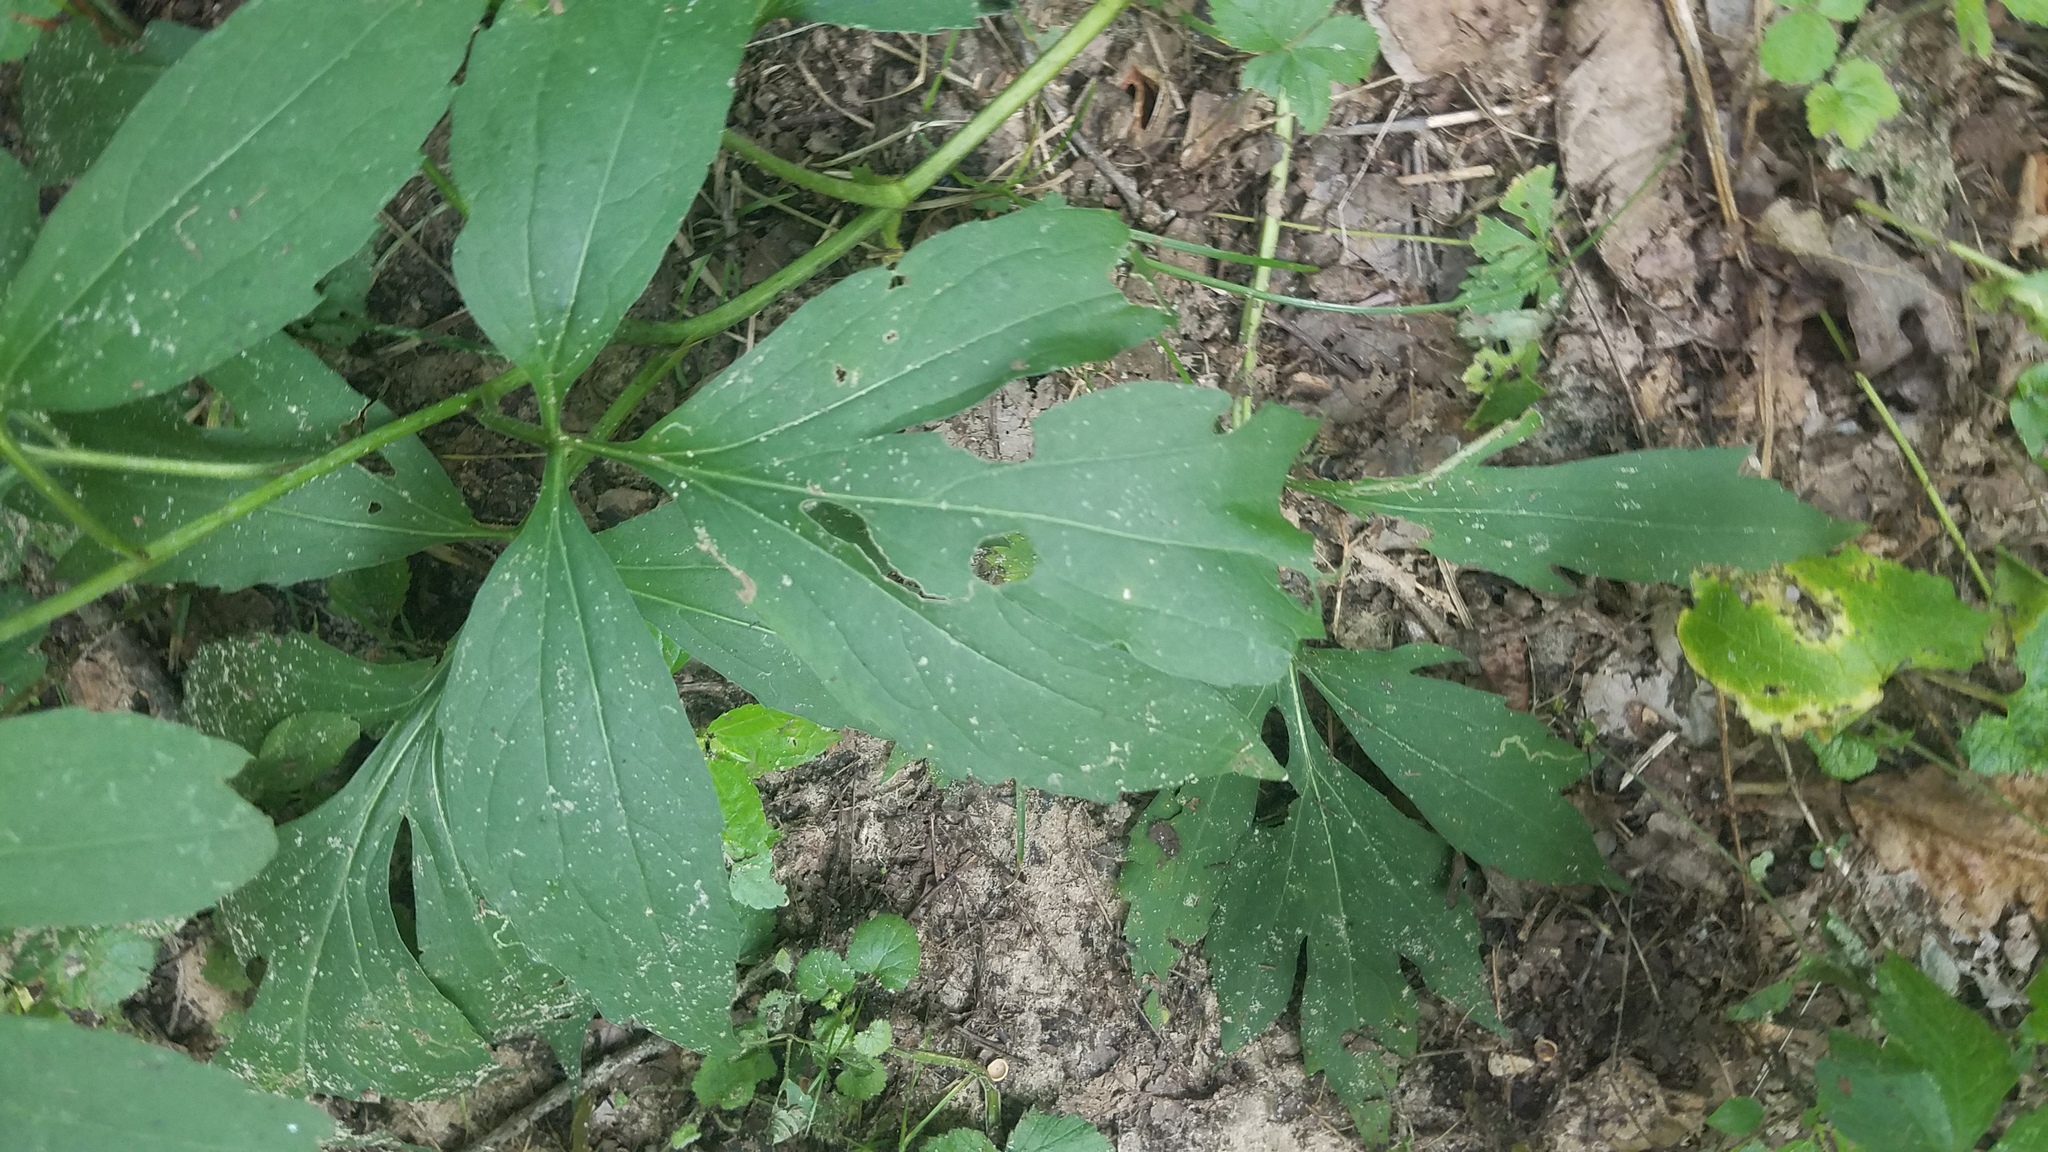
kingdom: Plantae
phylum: Tracheophyta
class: Magnoliopsida
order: Asterales
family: Asteraceae
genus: Rudbeckia
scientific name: Rudbeckia laciniata
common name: Coneflower
